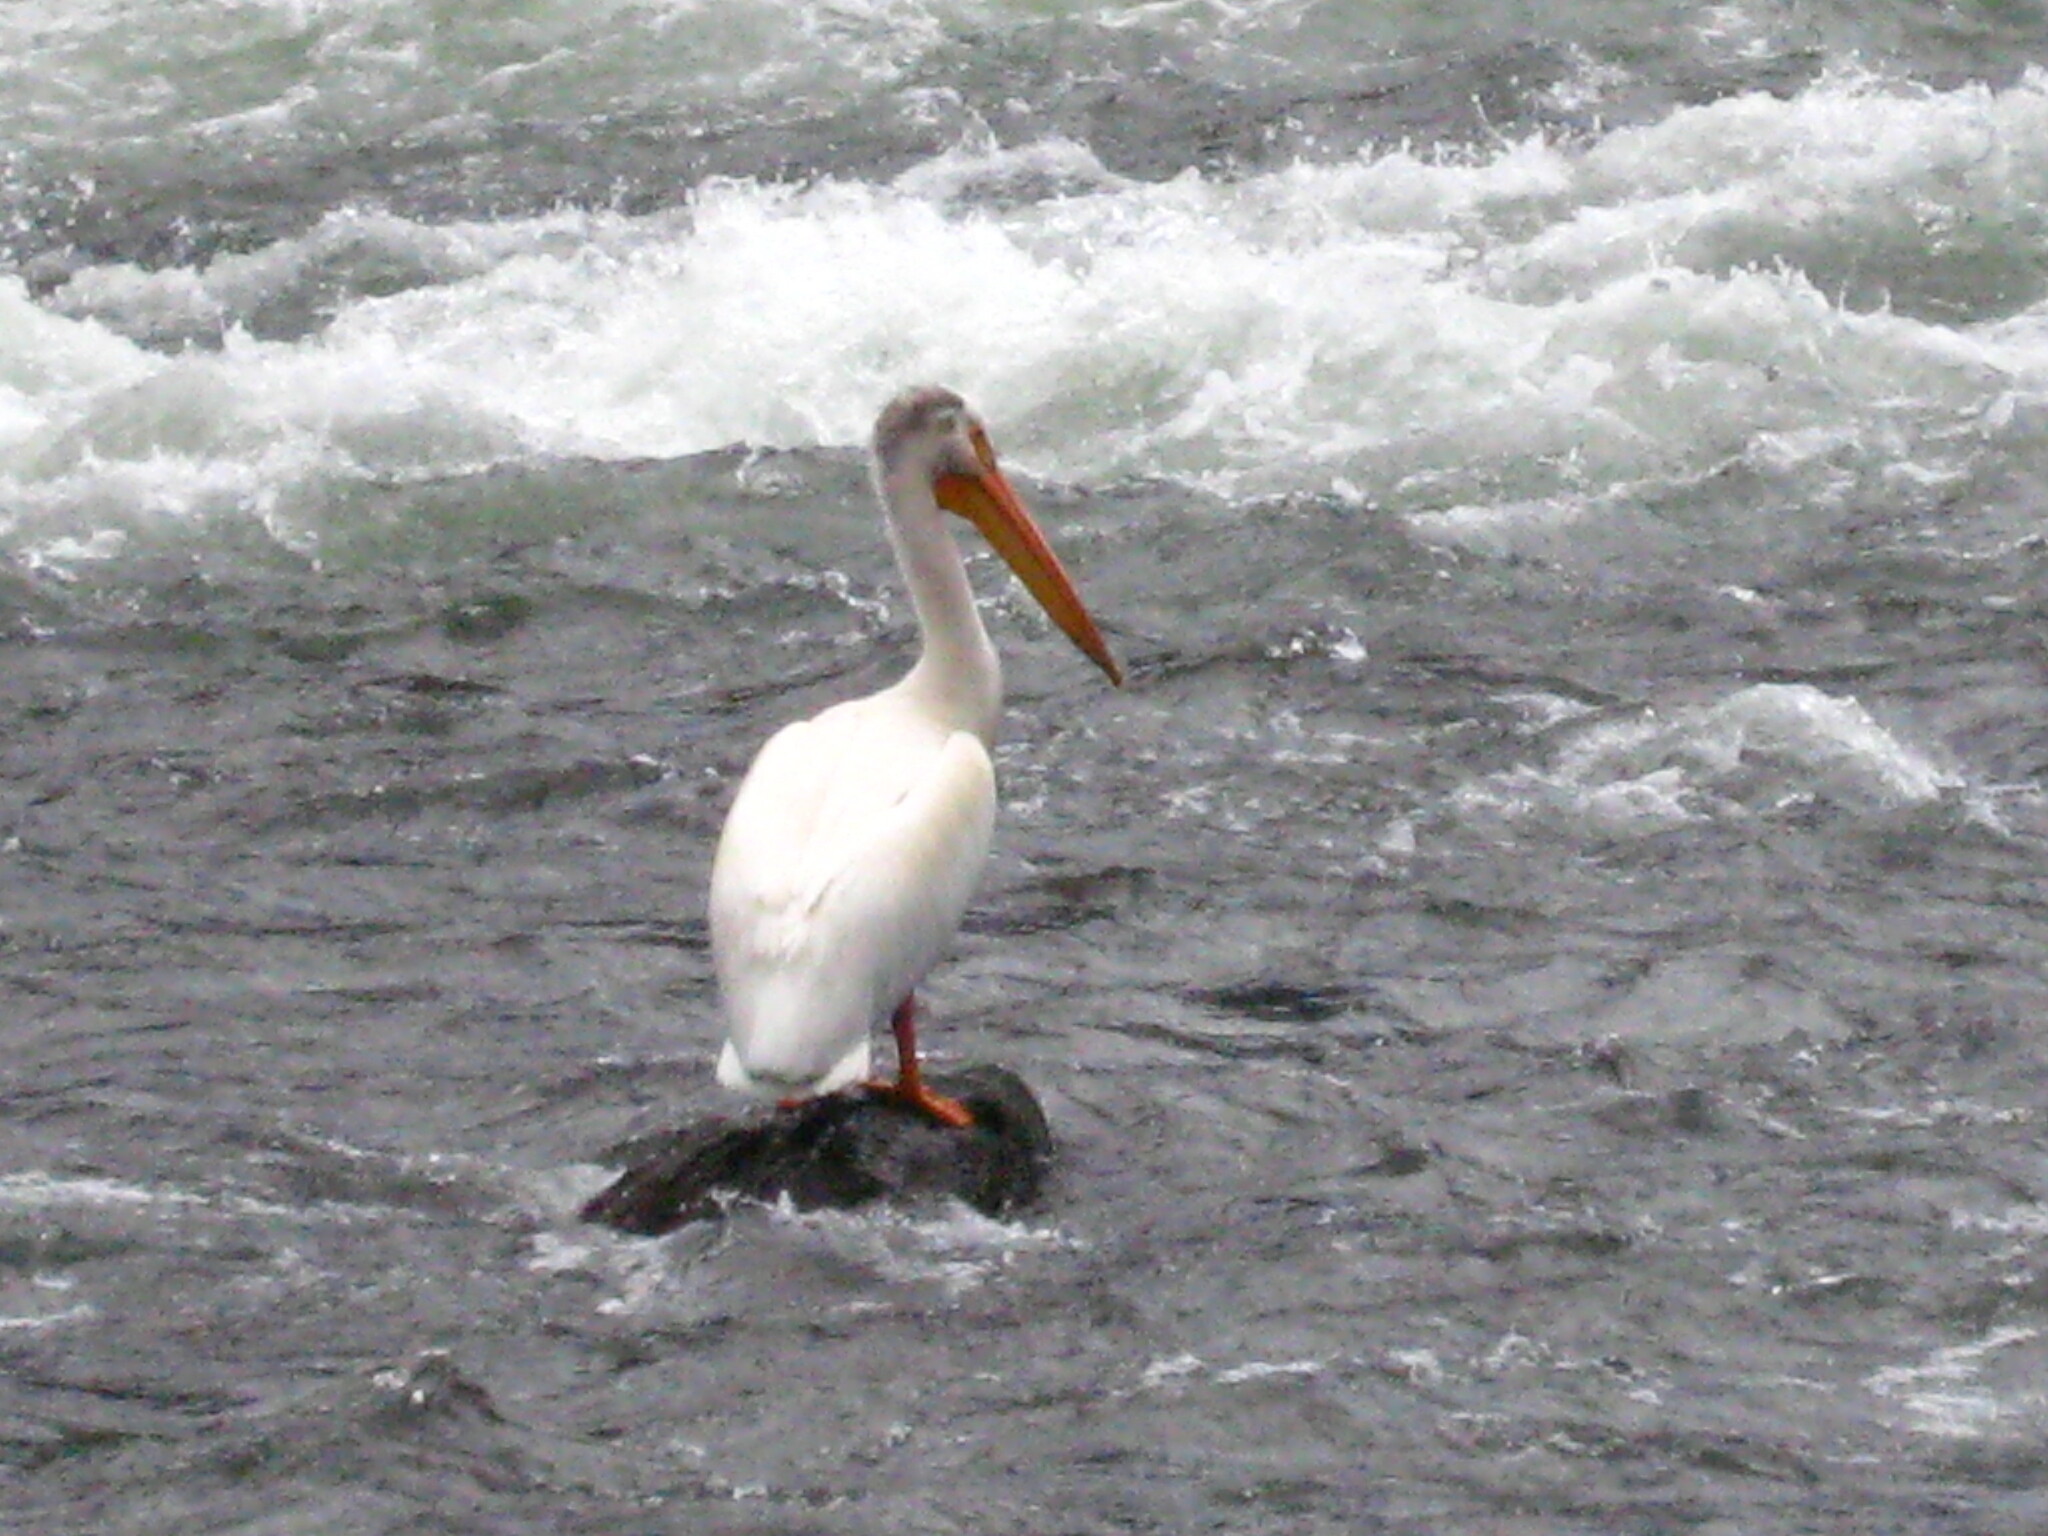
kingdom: Animalia
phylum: Chordata
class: Aves
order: Pelecaniformes
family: Pelecanidae
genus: Pelecanus
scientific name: Pelecanus erythrorhynchos
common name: American white pelican
